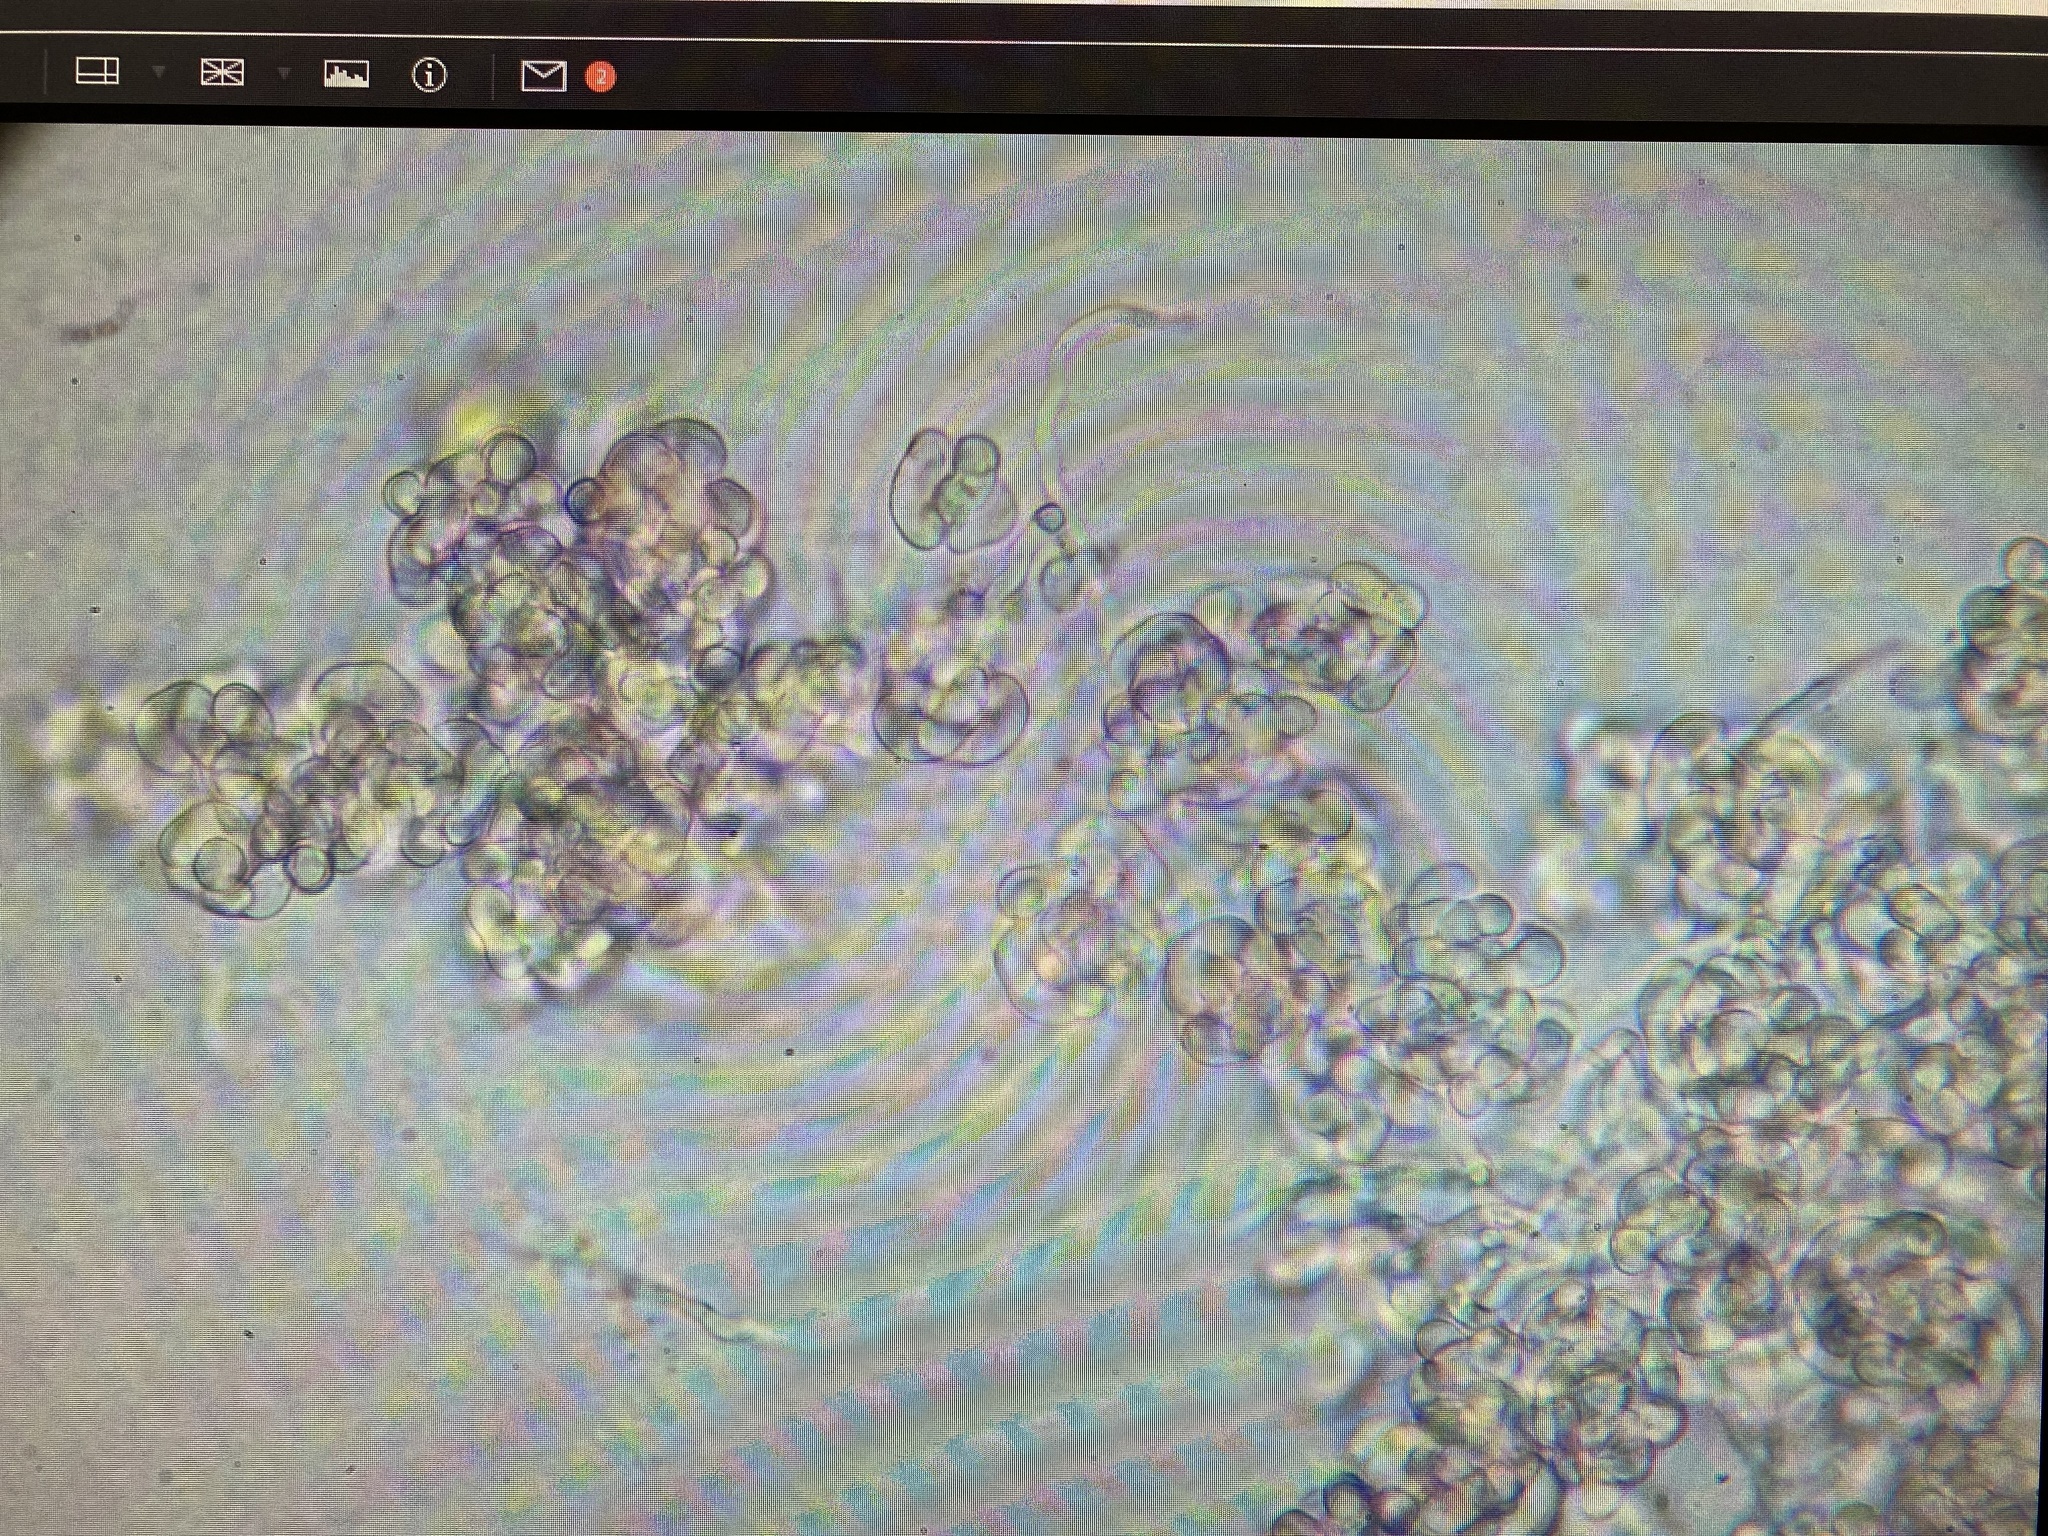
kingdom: Fungi
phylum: Ascomycota
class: Sordariomycetes
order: Hypocreales
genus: Illosporiopsis
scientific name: Illosporiopsis christiansenii
